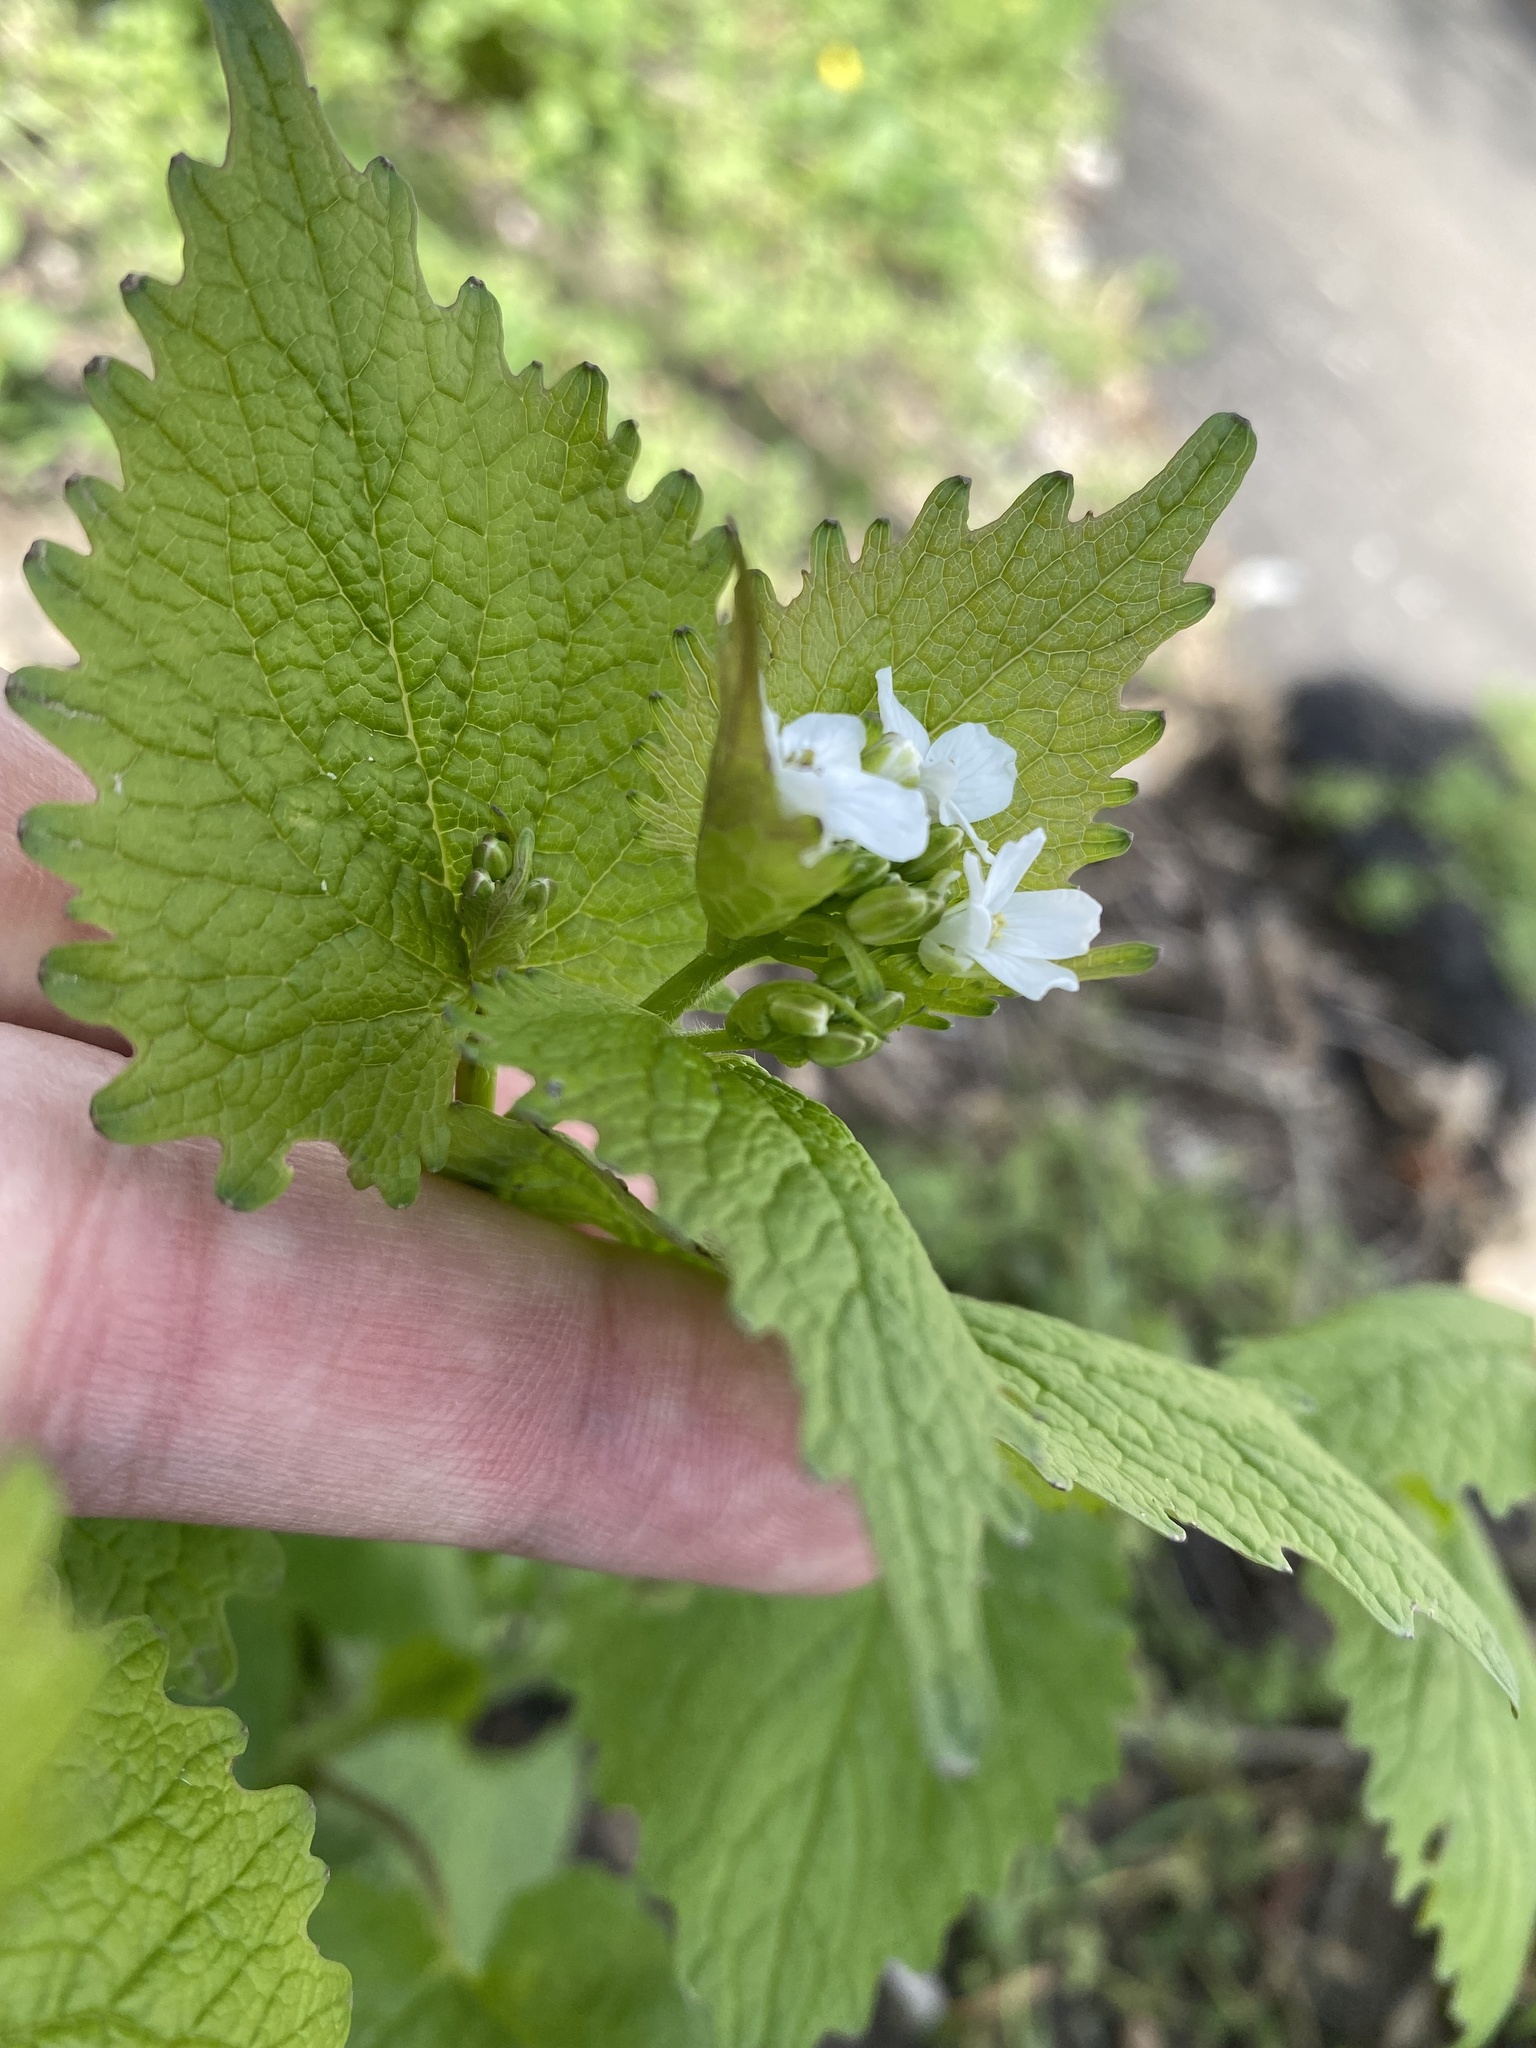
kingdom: Plantae
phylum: Tracheophyta
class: Magnoliopsida
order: Brassicales
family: Brassicaceae
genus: Alliaria
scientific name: Alliaria petiolata
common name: Garlic mustard
